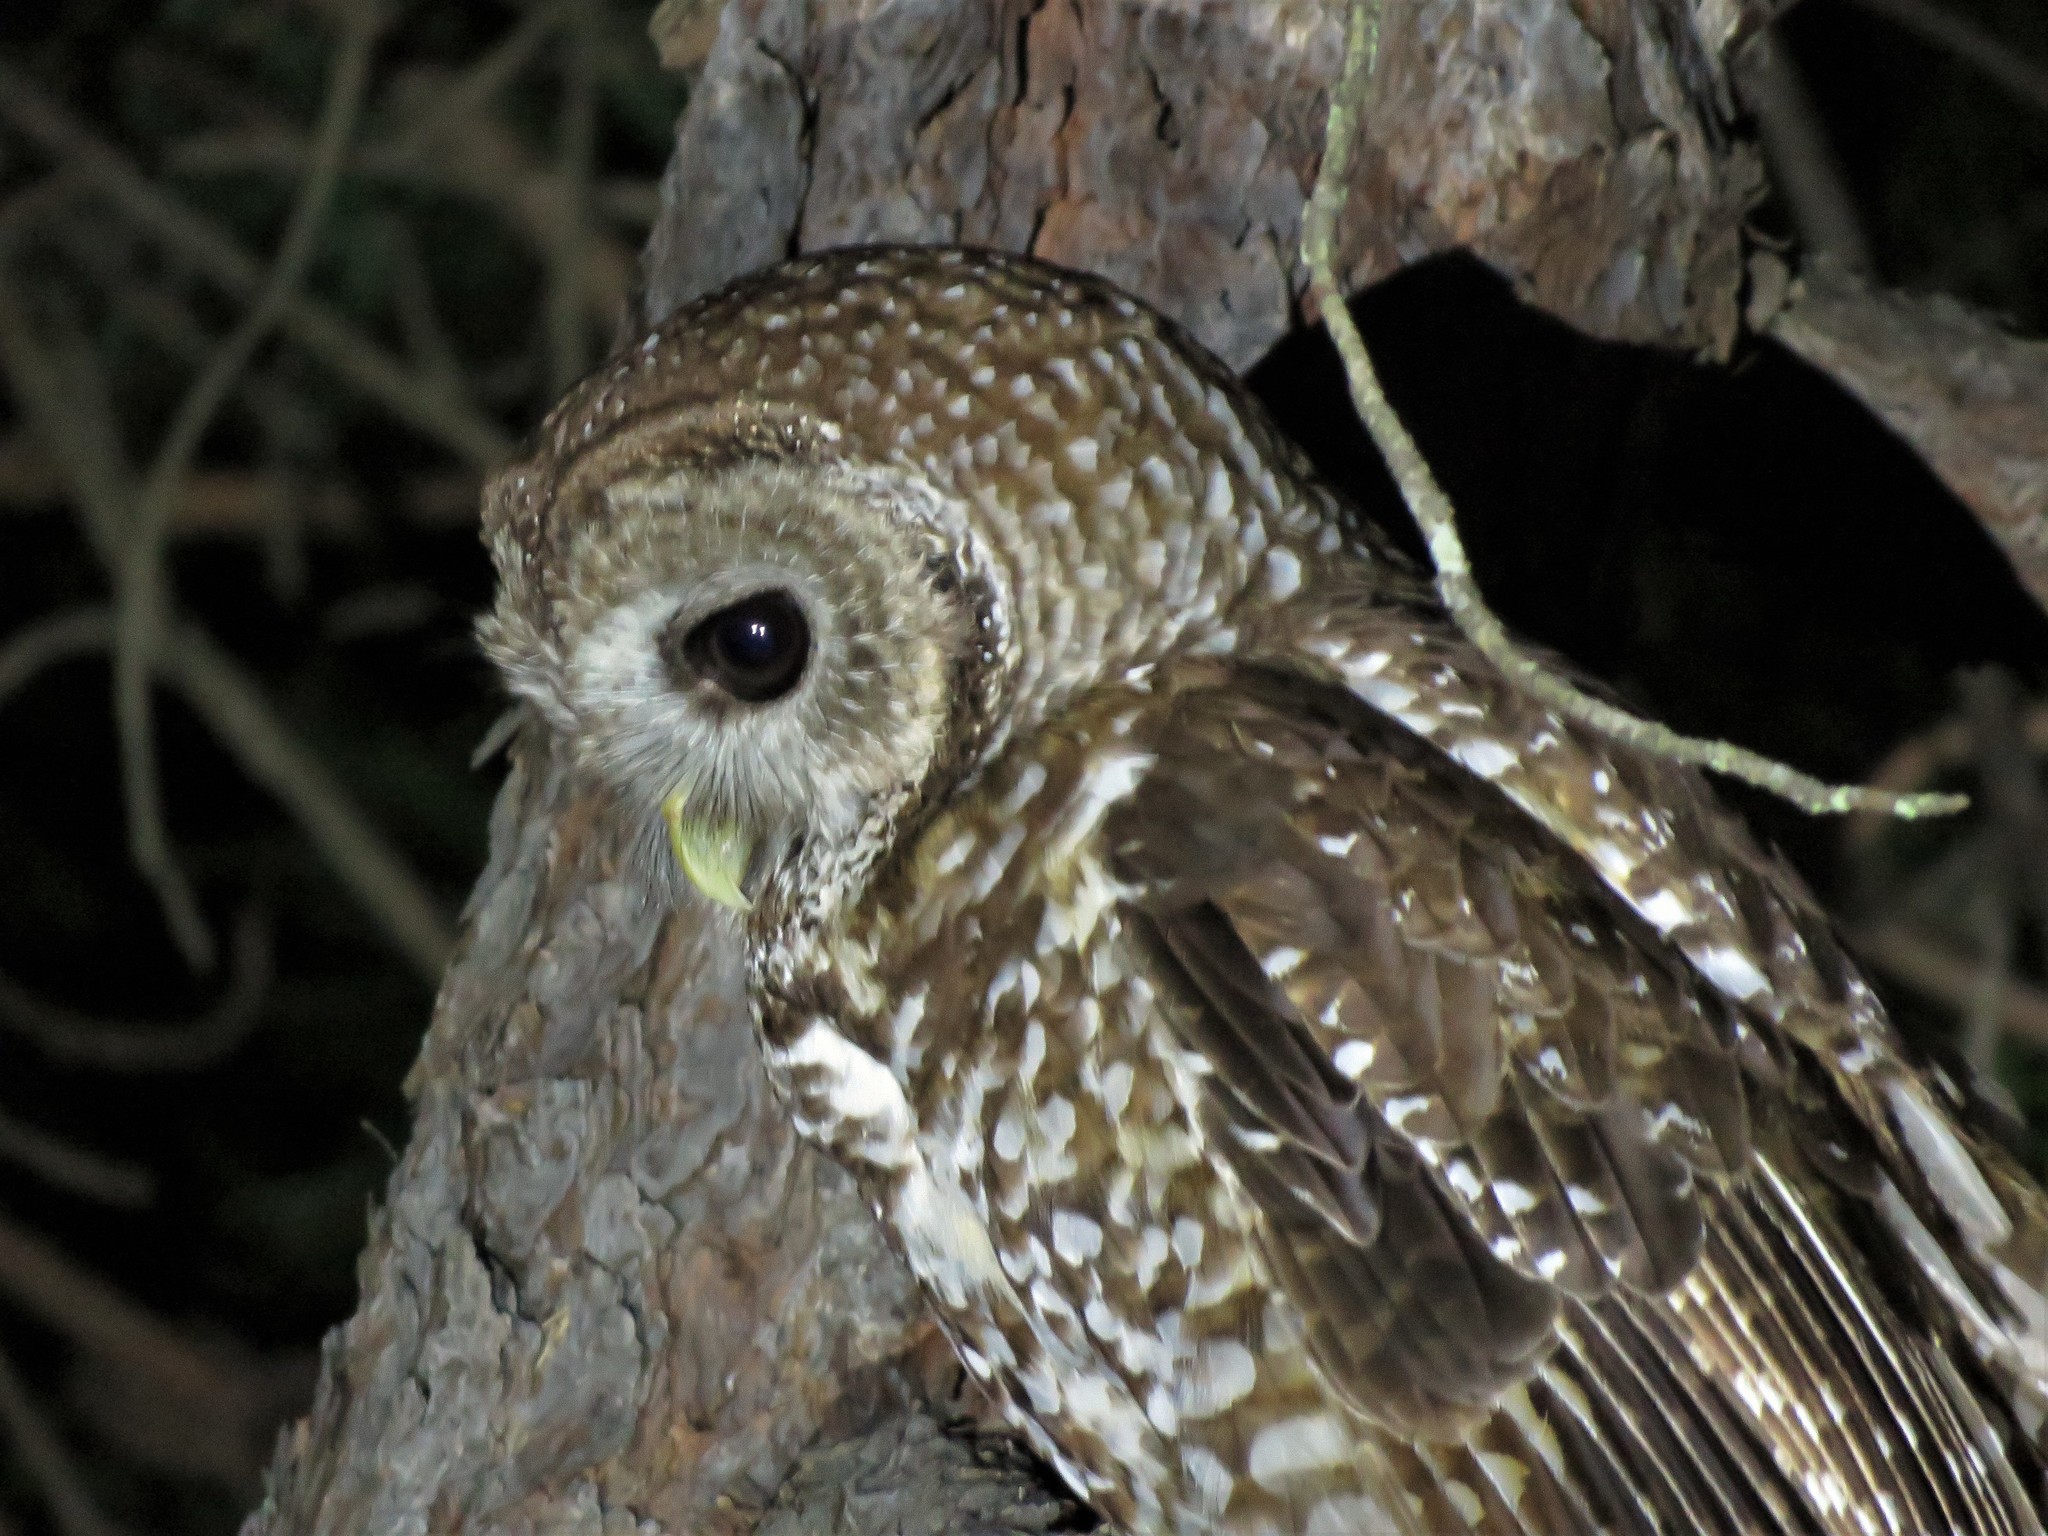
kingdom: Animalia
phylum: Chordata
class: Aves
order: Strigiformes
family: Strigidae
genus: Strix
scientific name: Strix occidentalis
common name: Spotted owl
